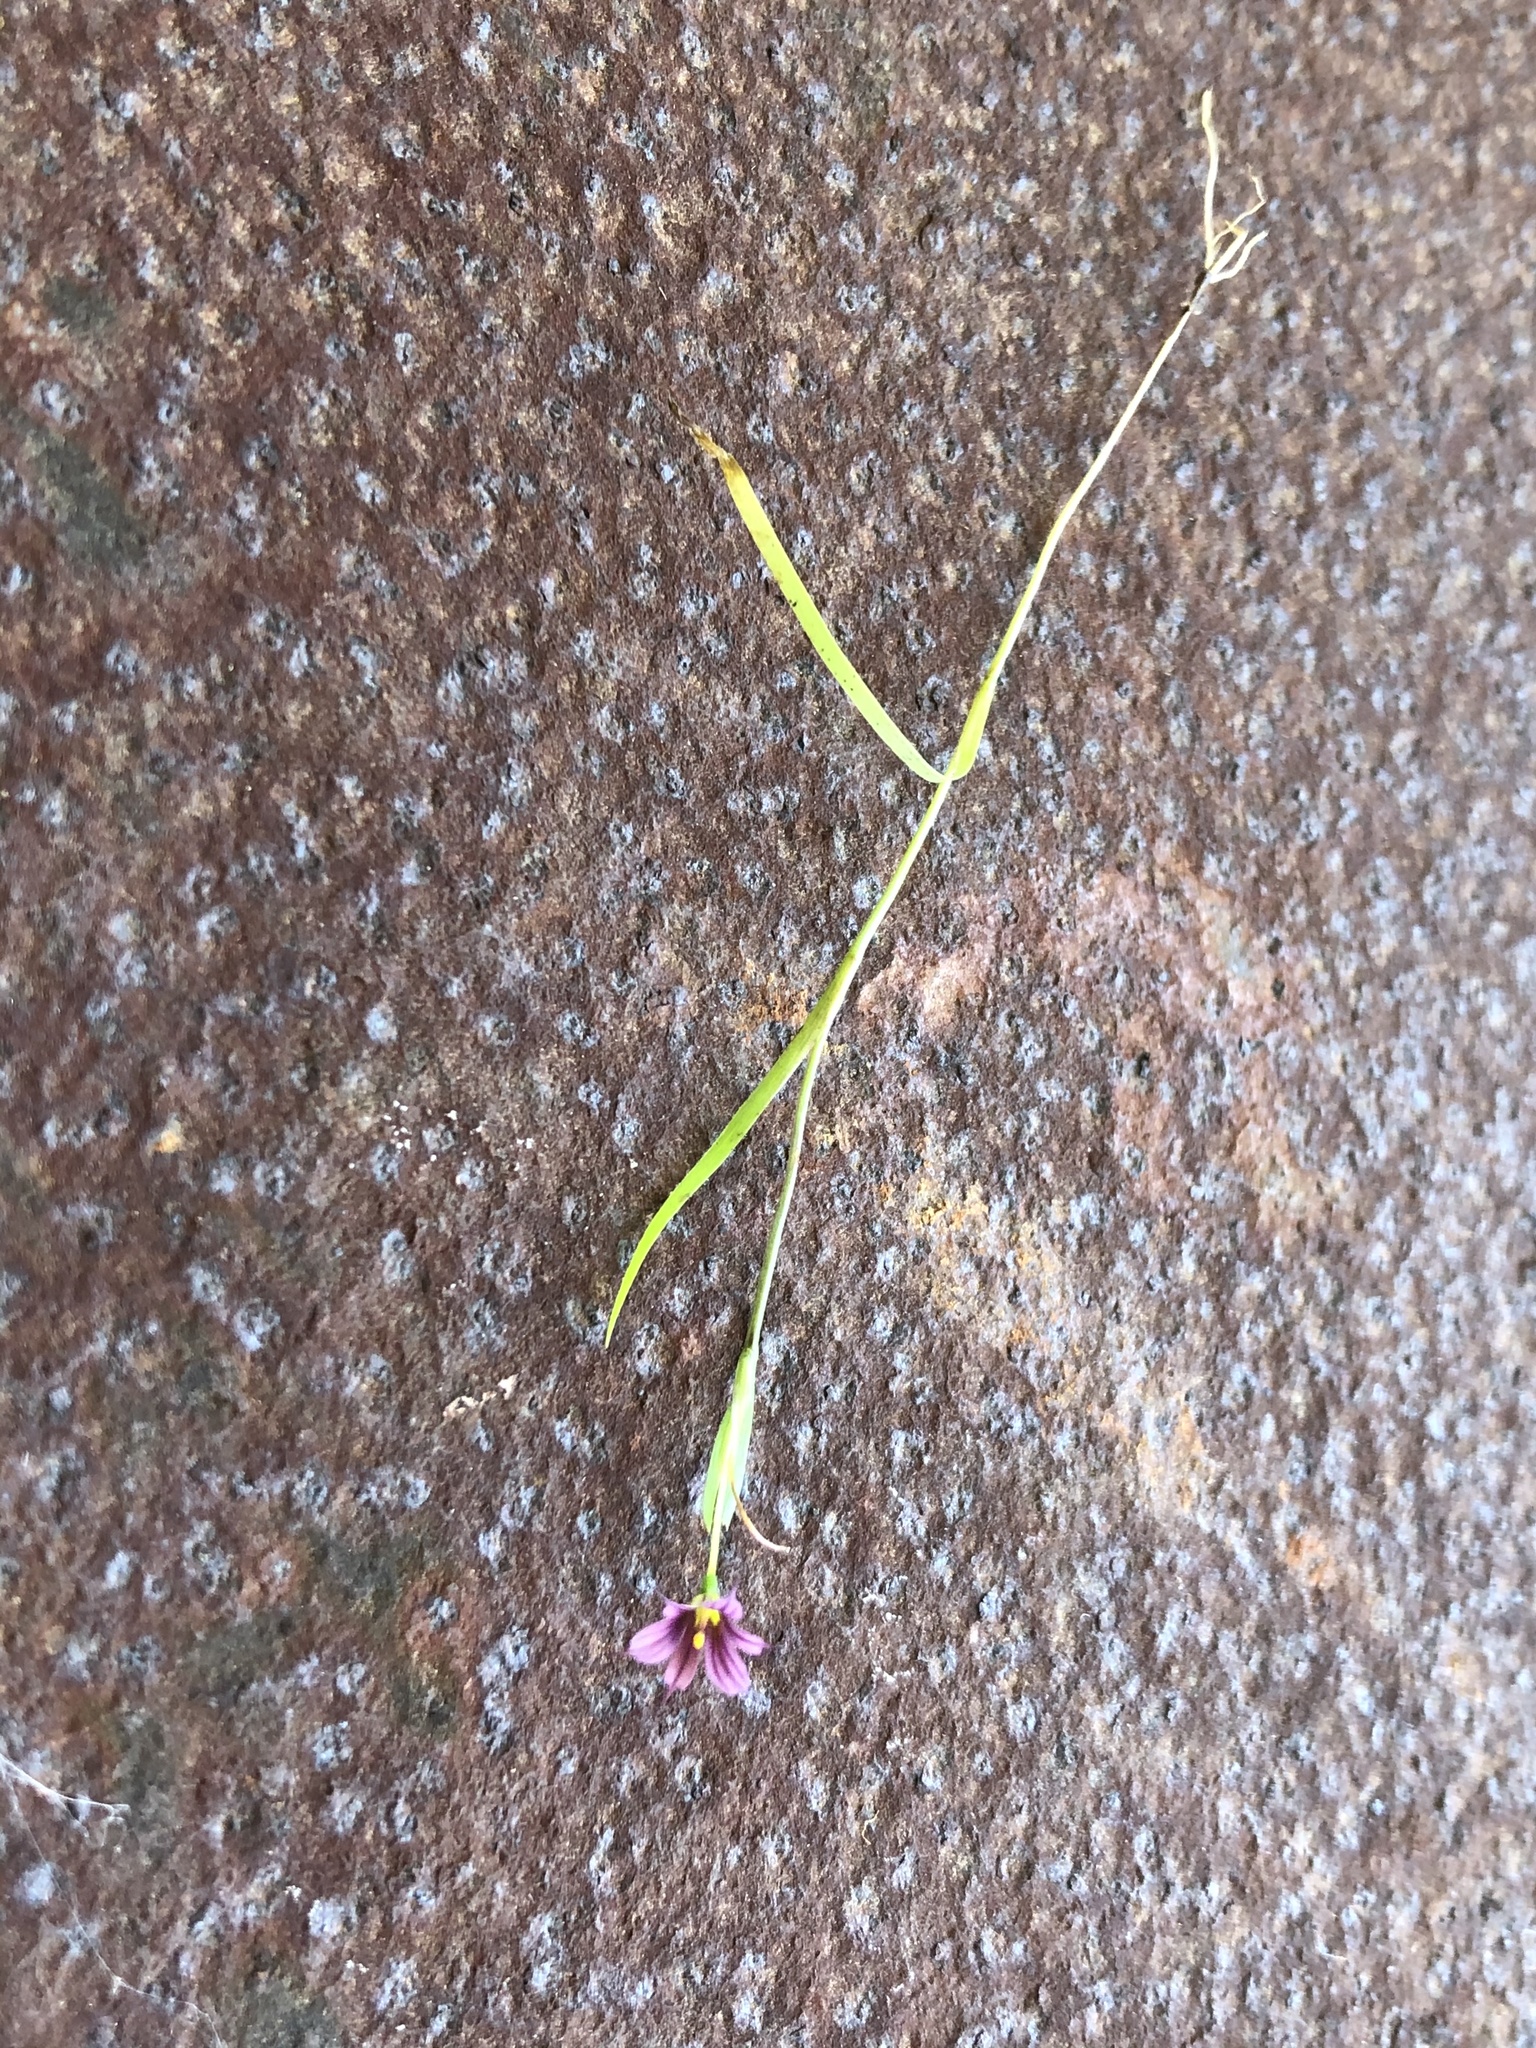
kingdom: Plantae
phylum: Tracheophyta
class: Liliopsida
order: Asparagales
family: Iridaceae
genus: Sisyrinchium
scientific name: Sisyrinchium minus
